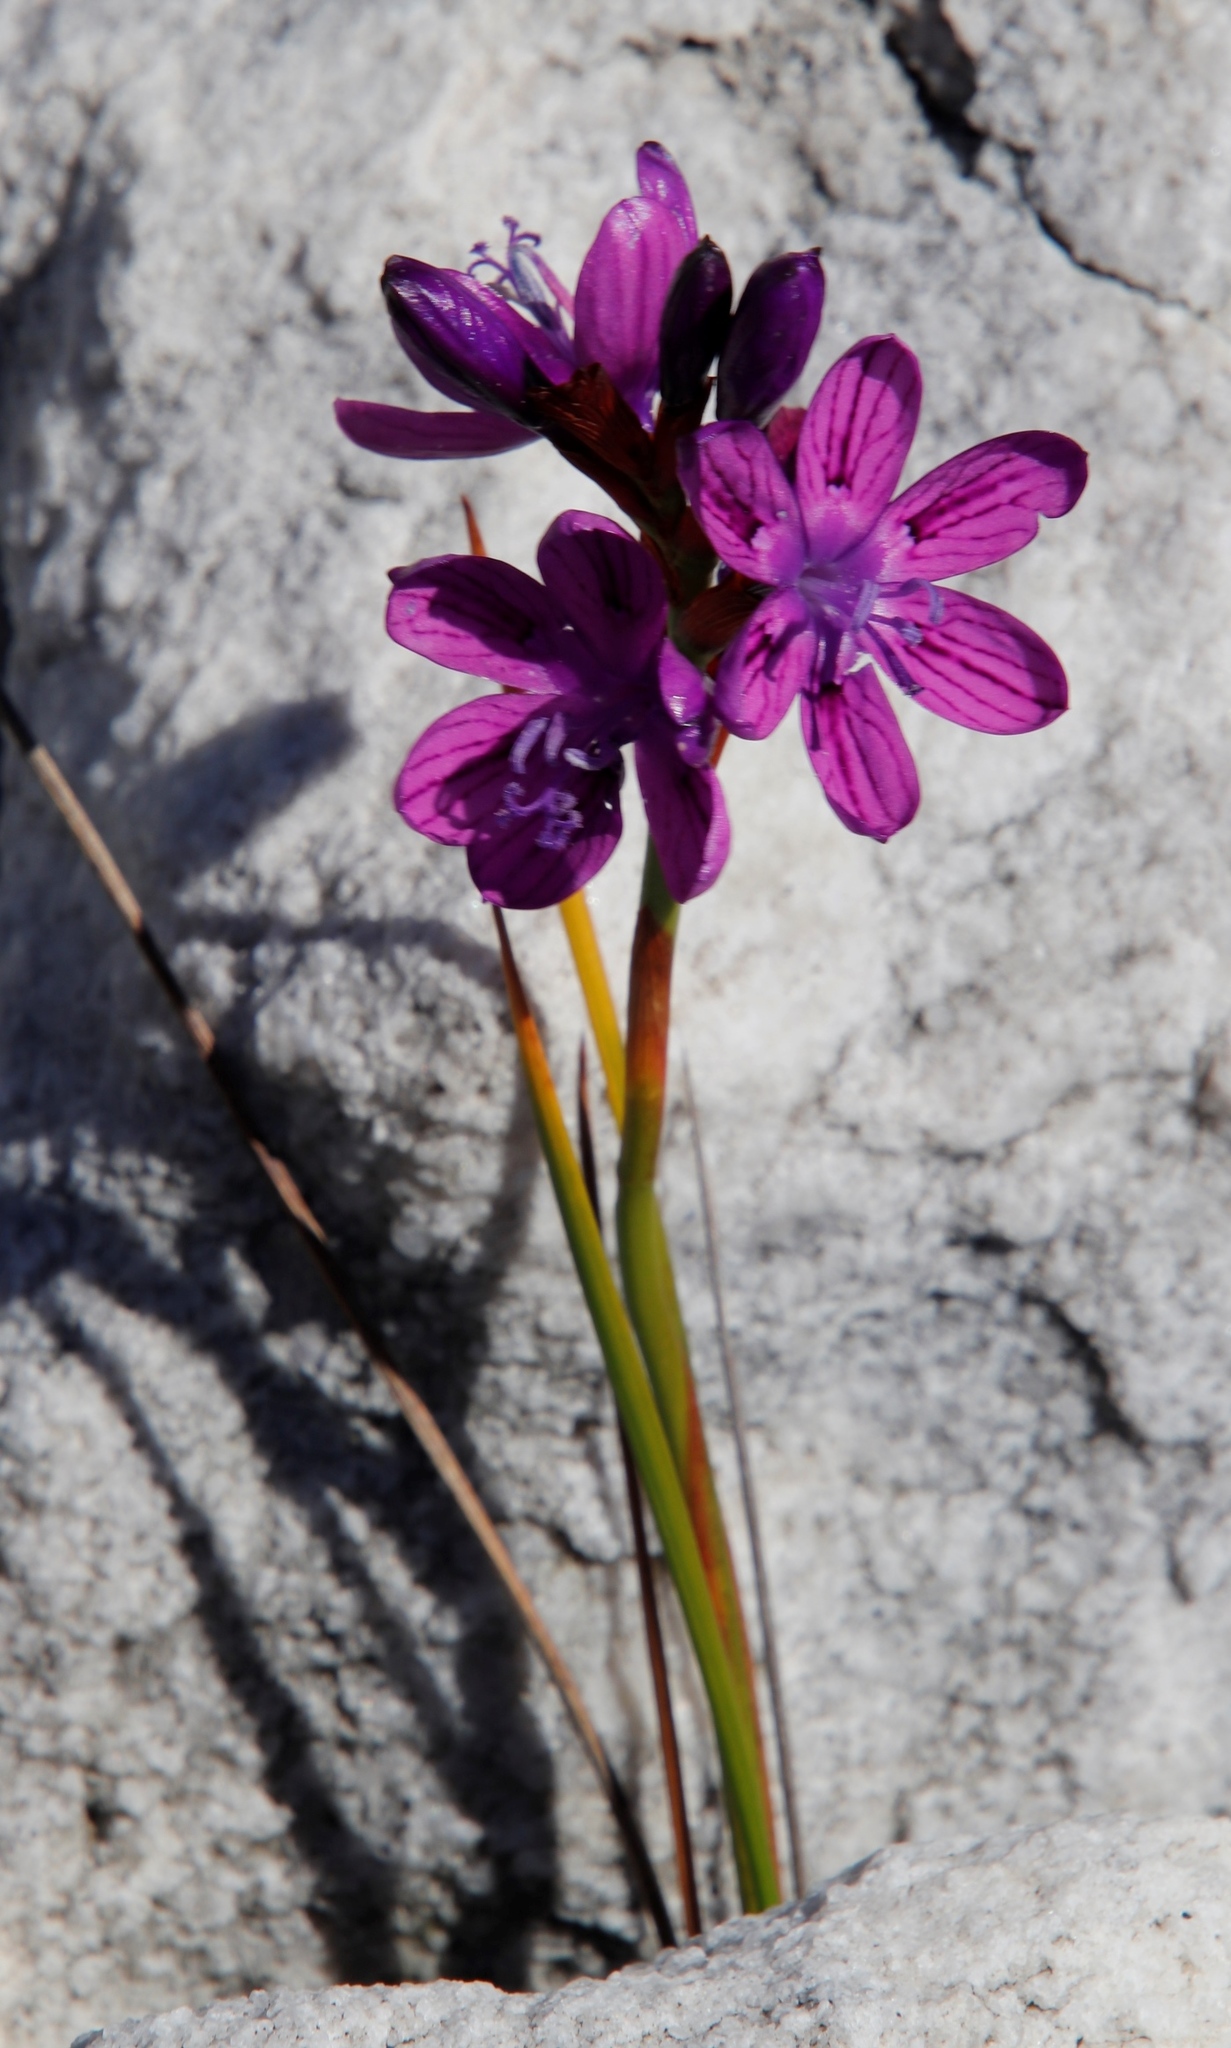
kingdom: Plantae
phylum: Tracheophyta
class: Liliopsida
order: Asparagales
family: Iridaceae
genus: Thereianthus
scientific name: Thereianthus bracteolatus
